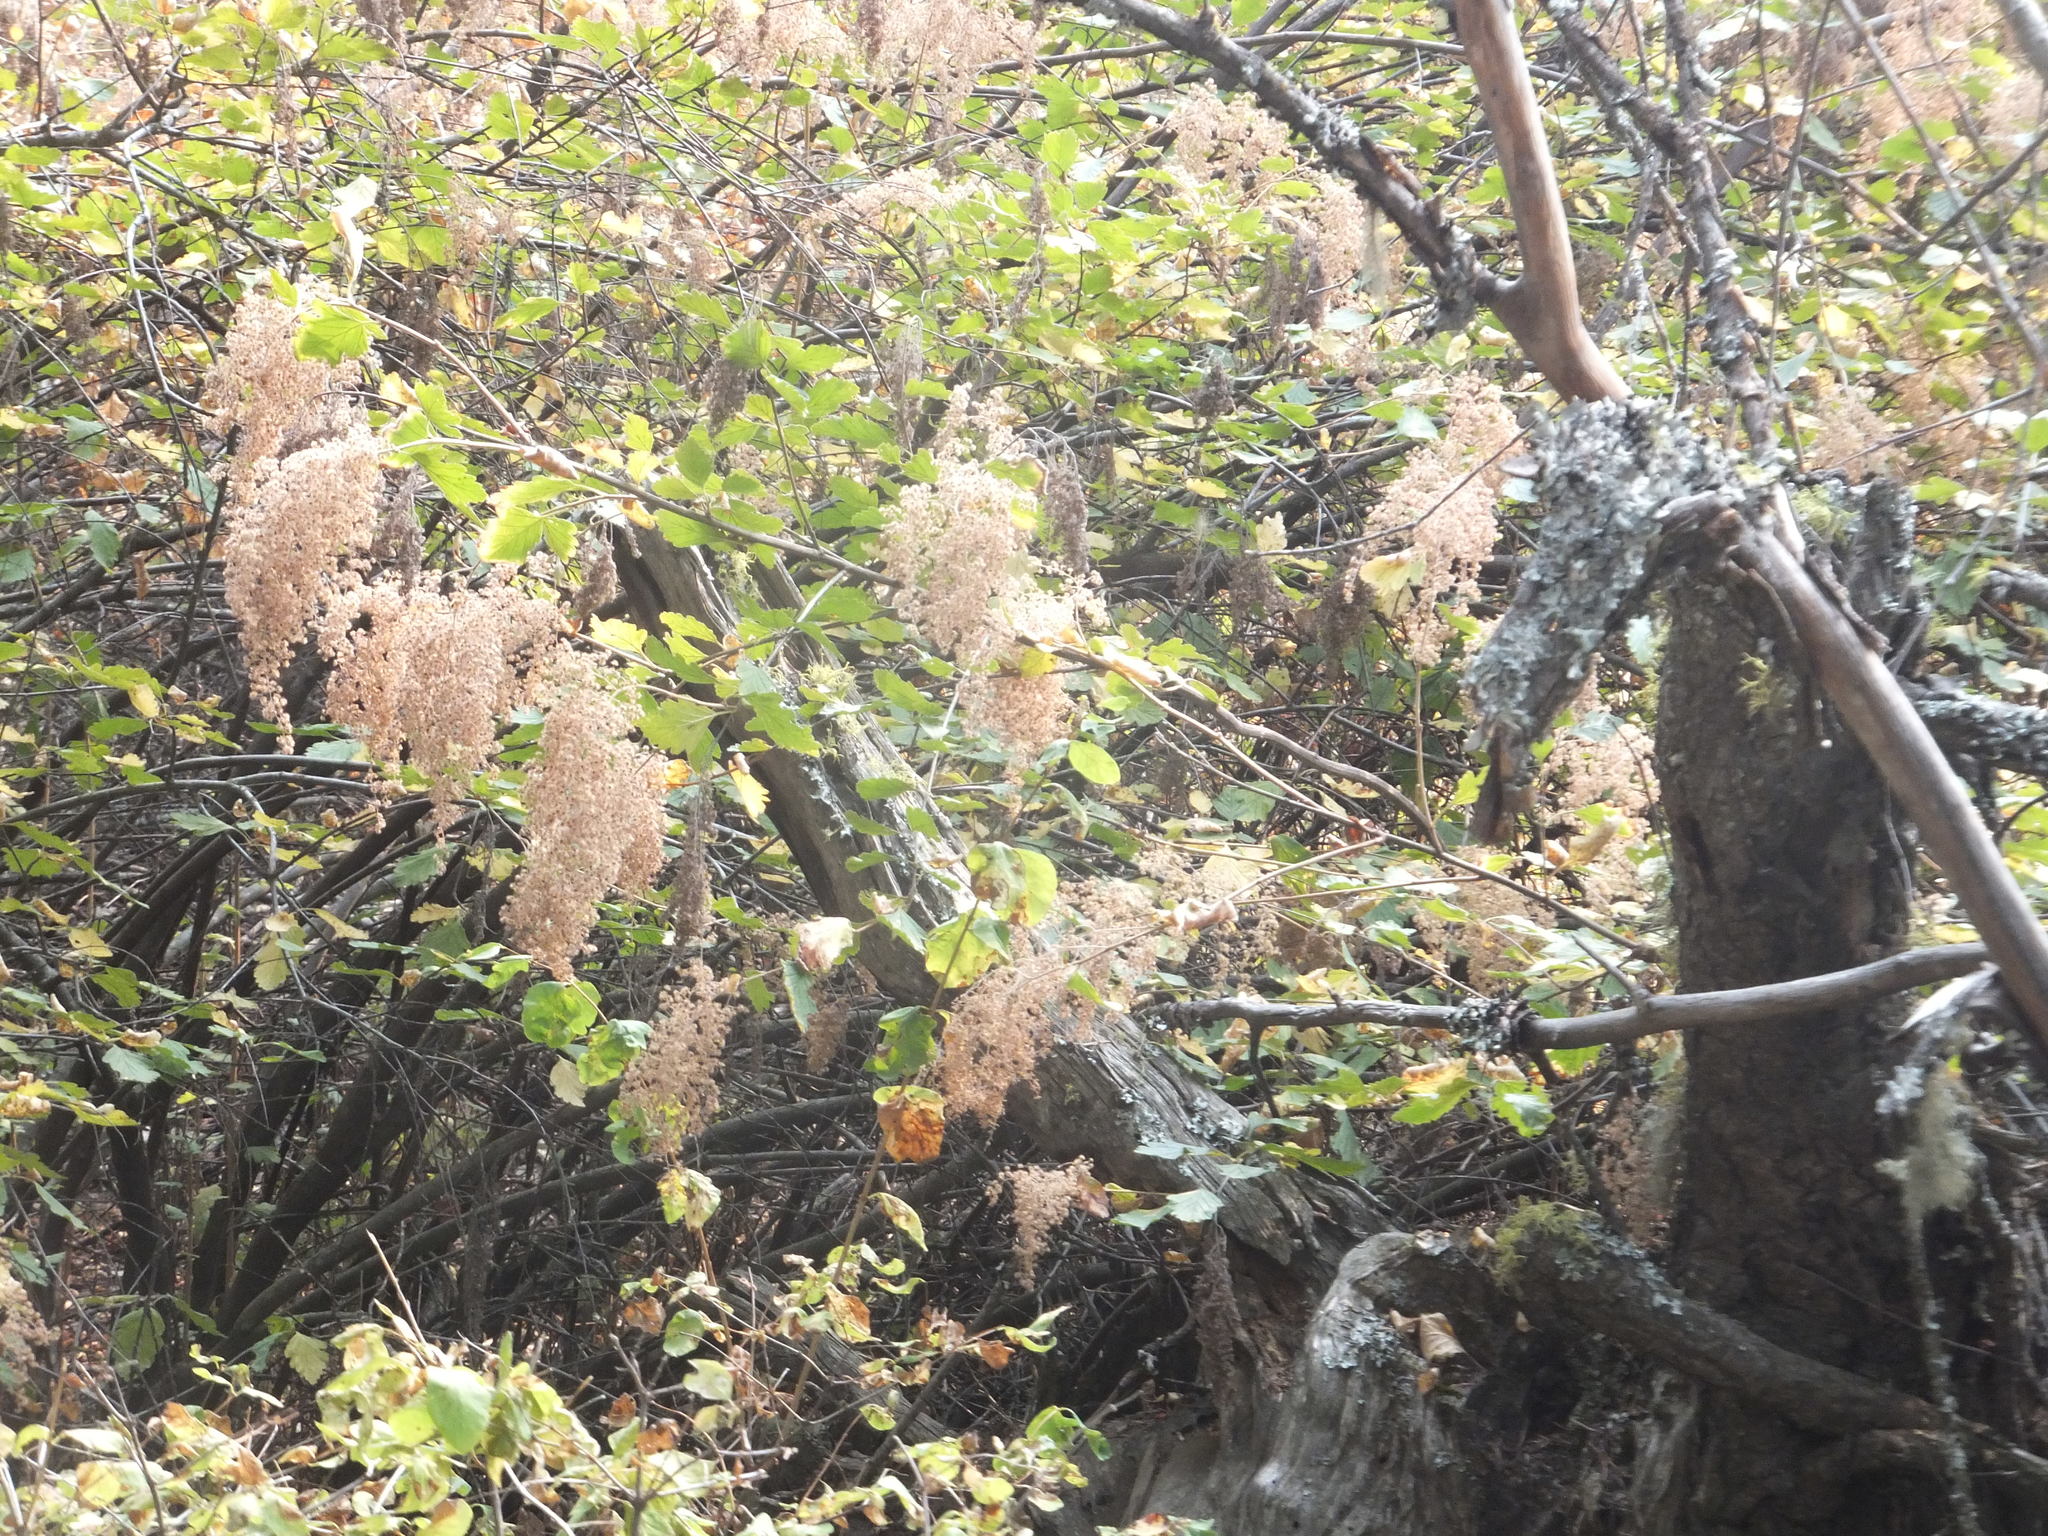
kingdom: Plantae
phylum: Tracheophyta
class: Magnoliopsida
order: Rosales
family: Rosaceae
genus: Holodiscus
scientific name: Holodiscus discolor
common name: Oceanspray
